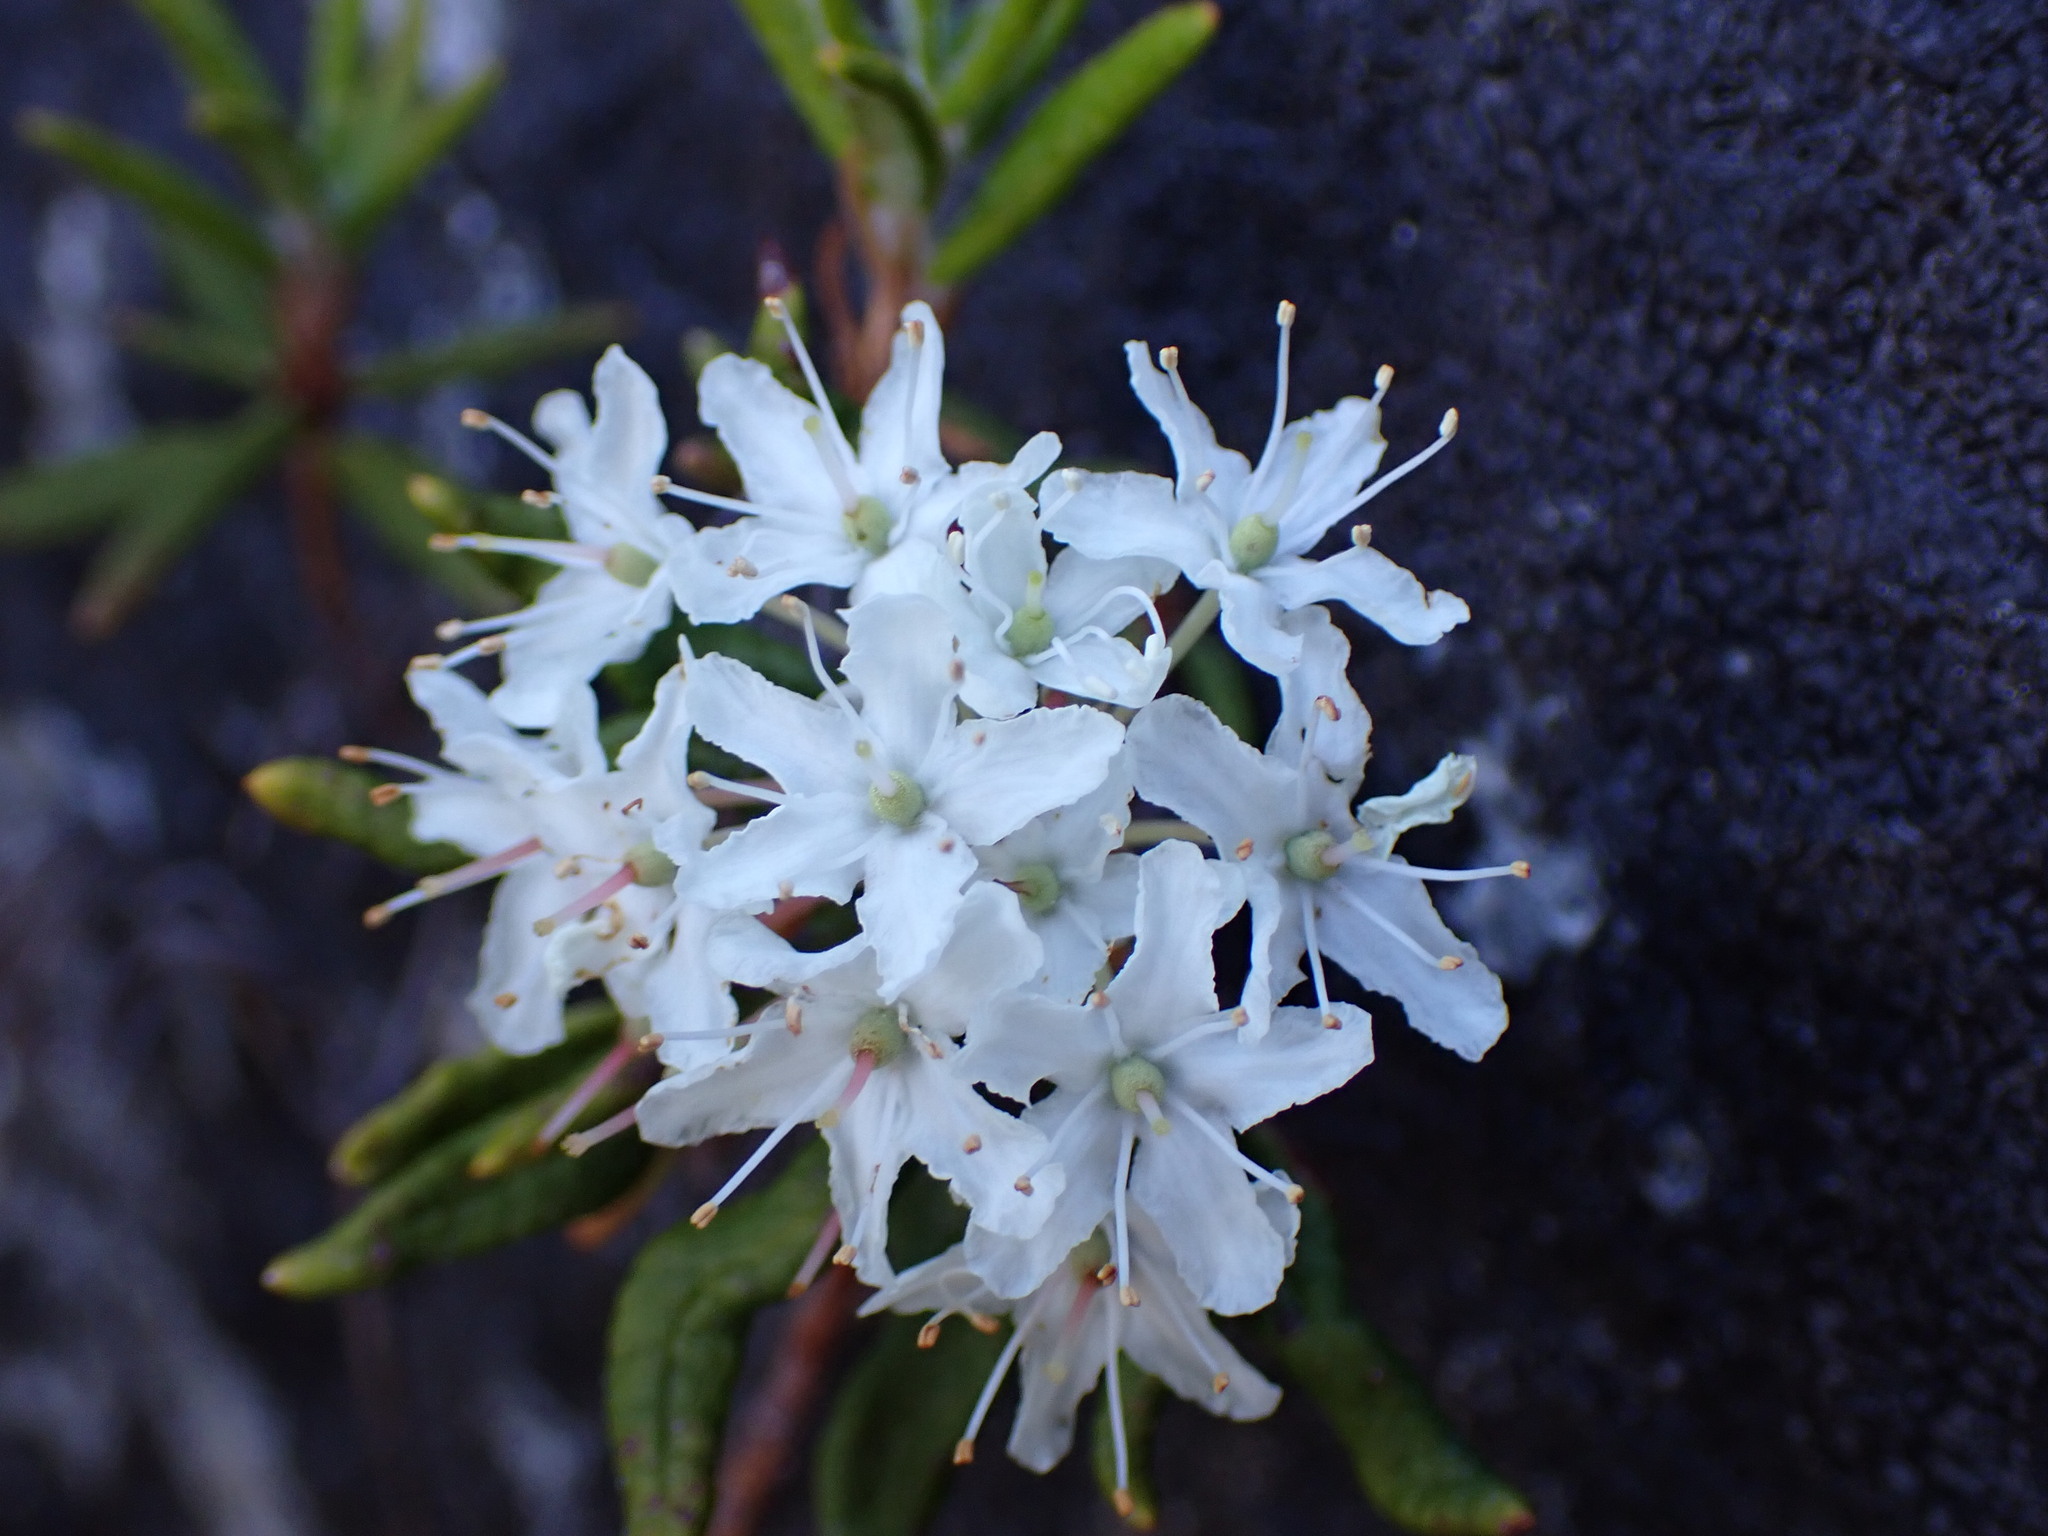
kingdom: Plantae
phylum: Tracheophyta
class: Magnoliopsida
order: Ericales
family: Ericaceae
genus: Rhododendron
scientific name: Rhododendron groenlandicum
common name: Bog labrador tea
